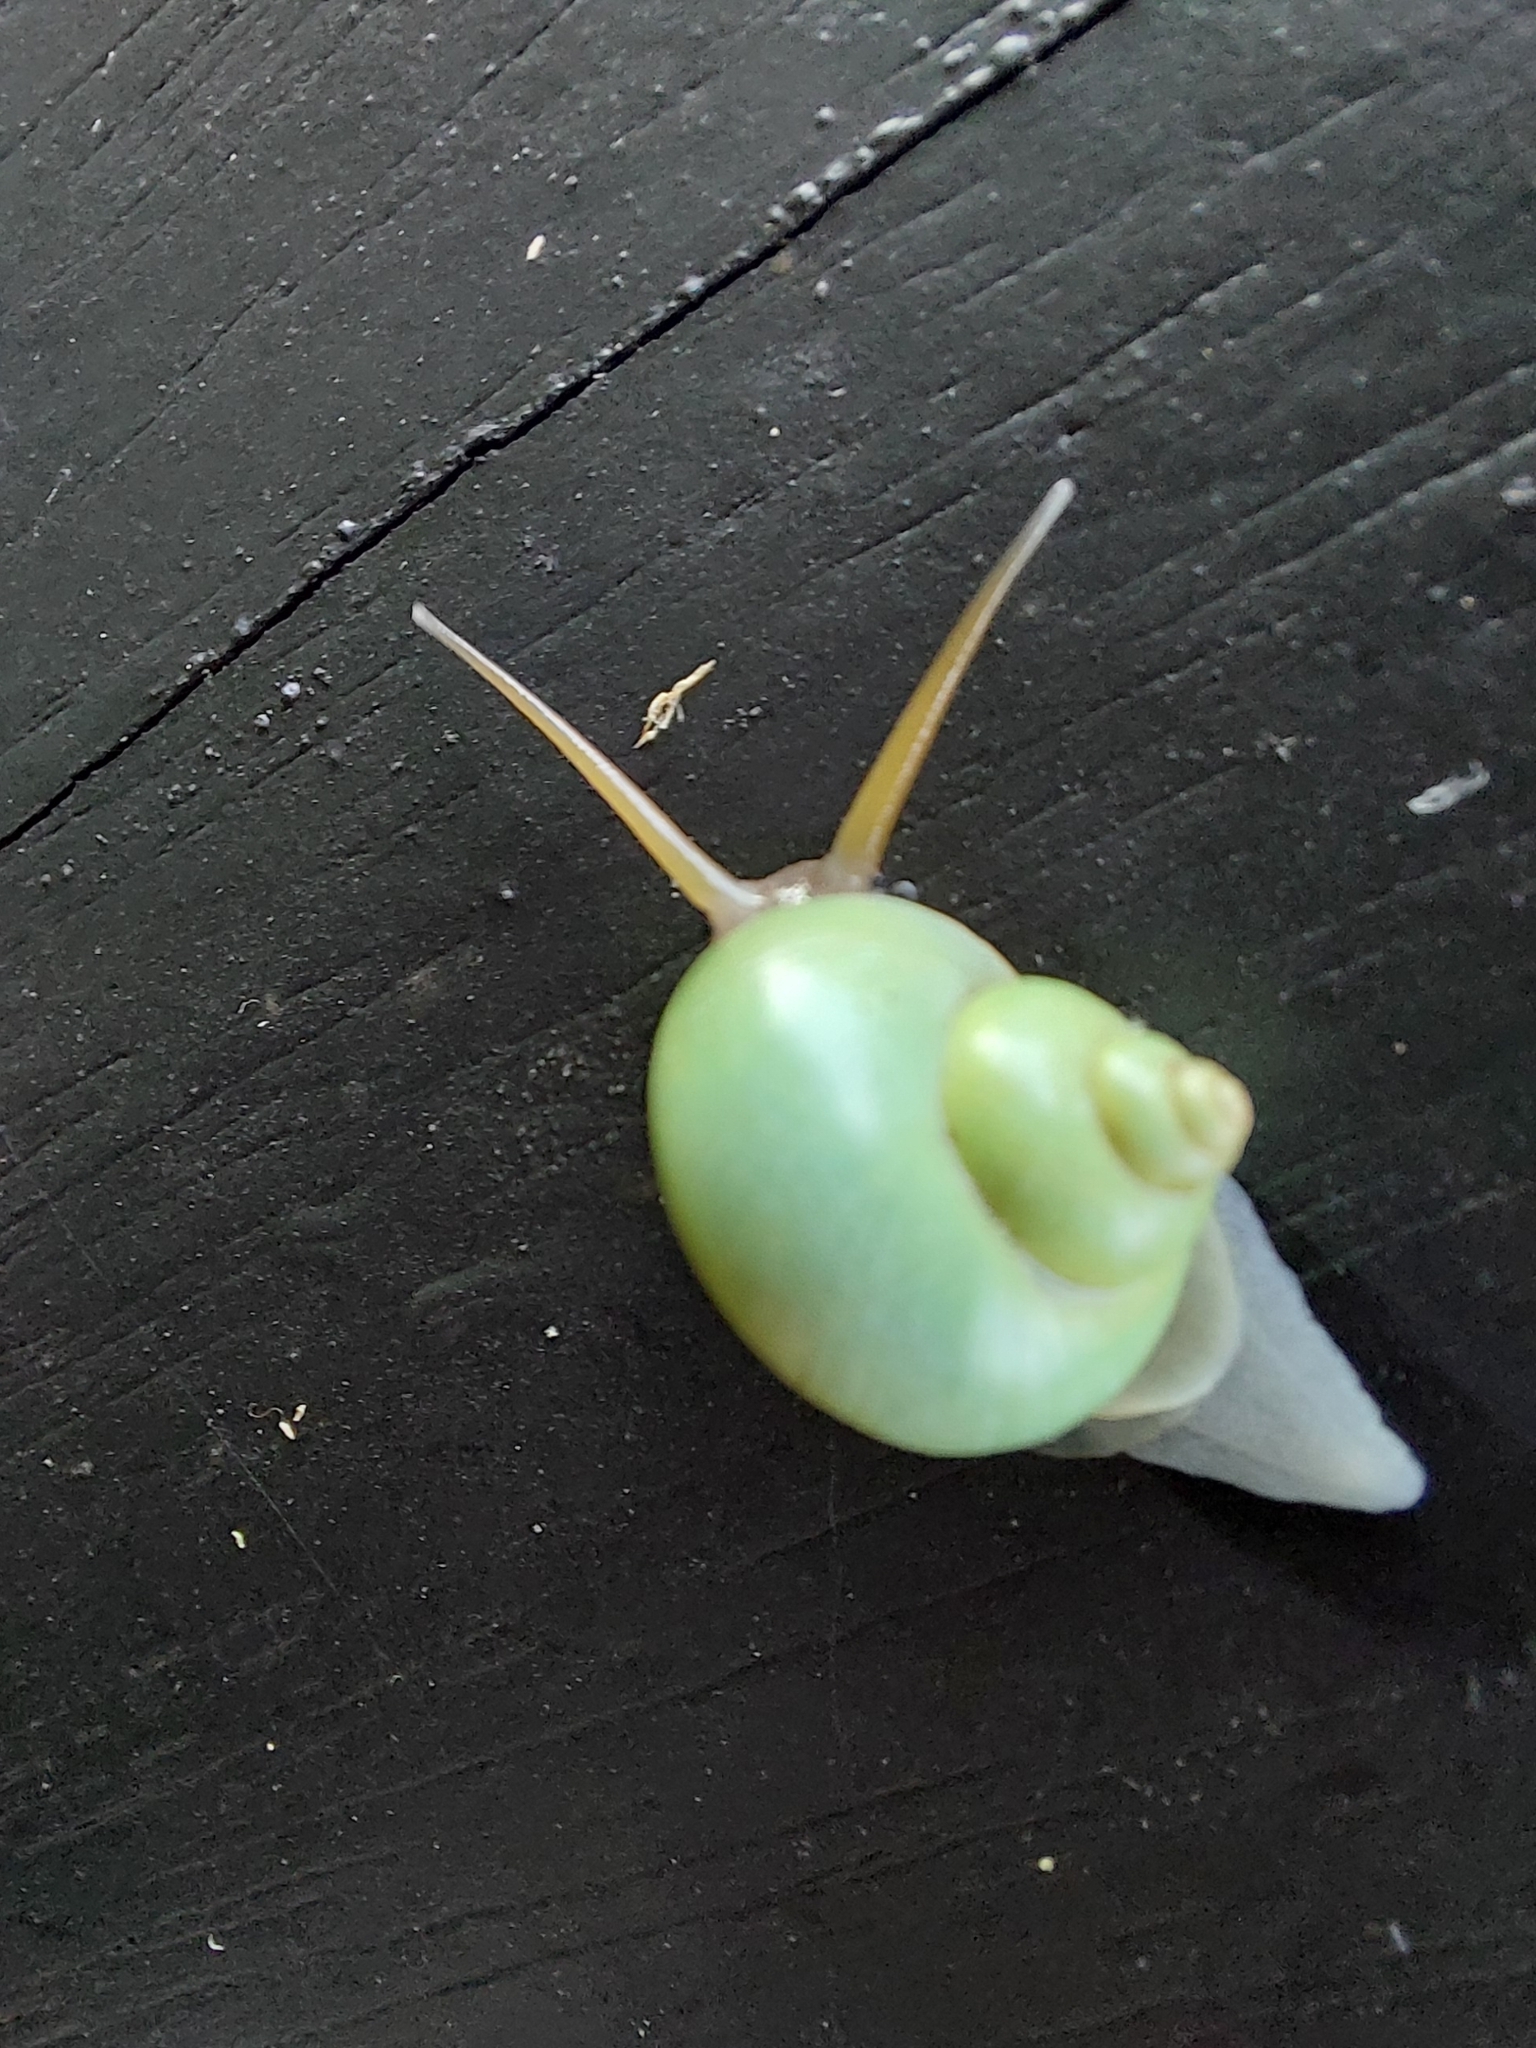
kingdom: Animalia
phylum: Mollusca
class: Gastropoda
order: Architaenioglossa
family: Cyclophoridae
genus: Leptopoma
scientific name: Leptopoma nitidum
